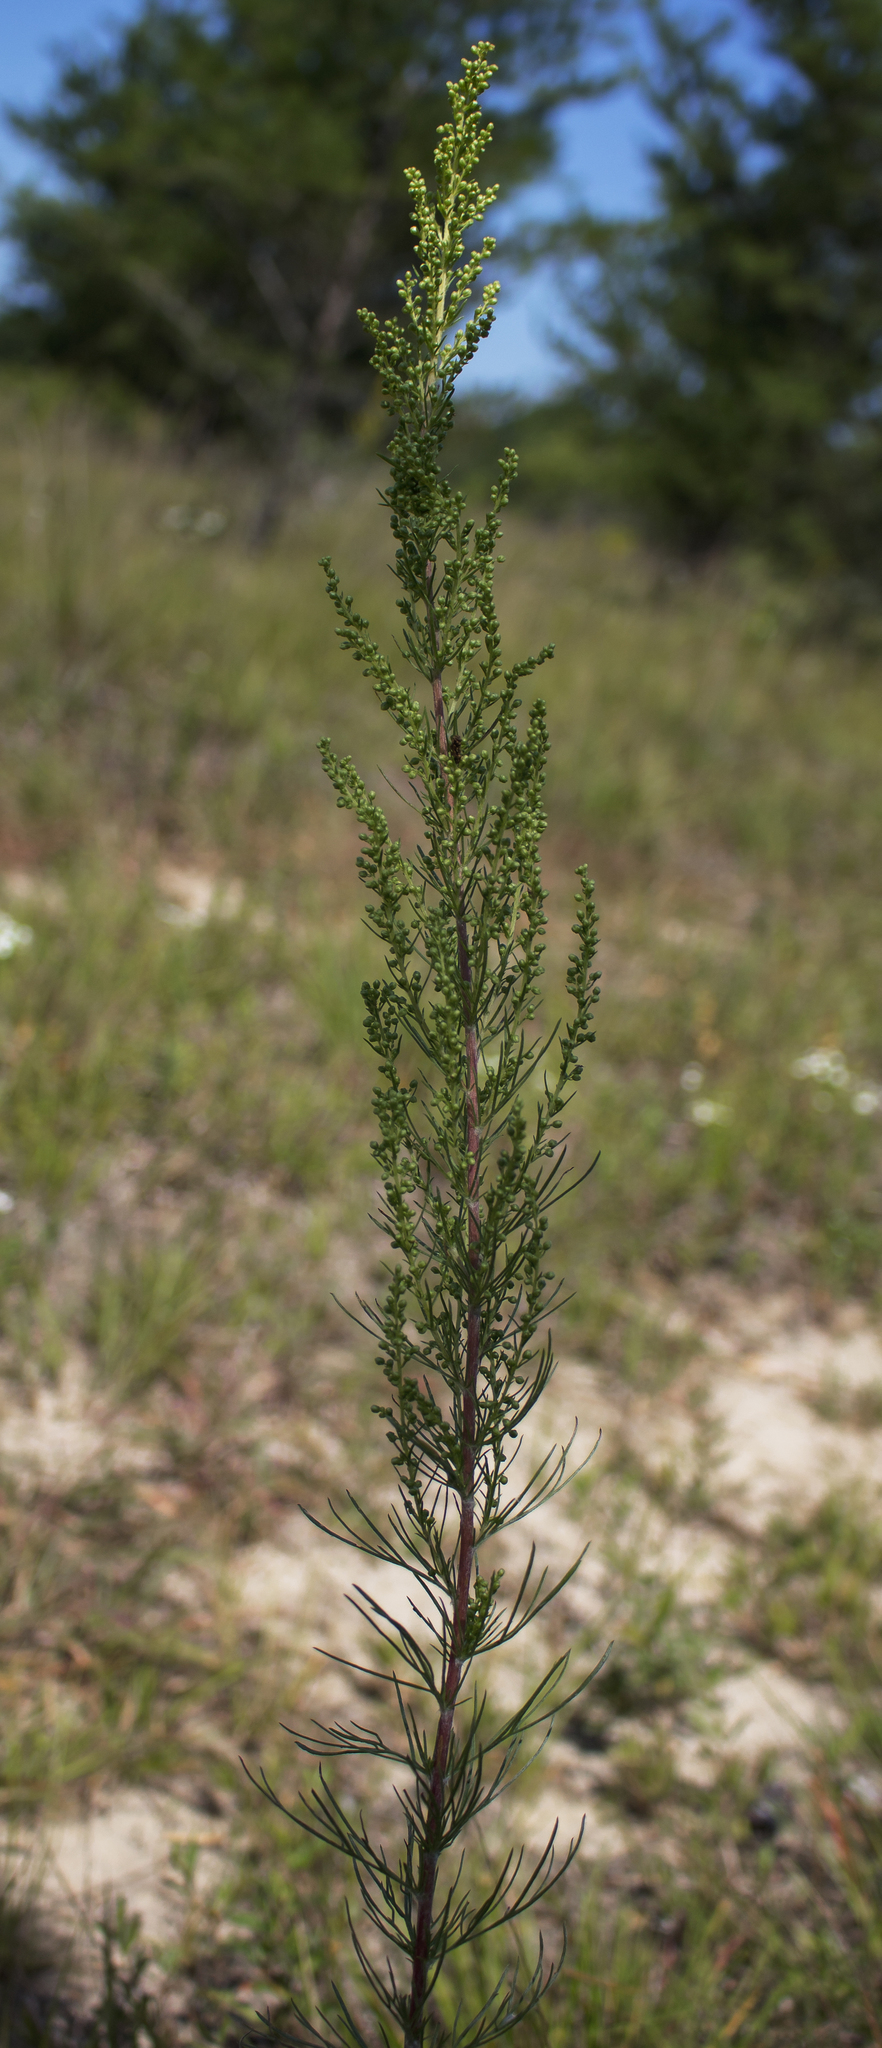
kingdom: Plantae
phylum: Tracheophyta
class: Magnoliopsida
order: Asterales
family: Asteraceae
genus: Artemisia
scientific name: Artemisia campestris
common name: Field wormwood
